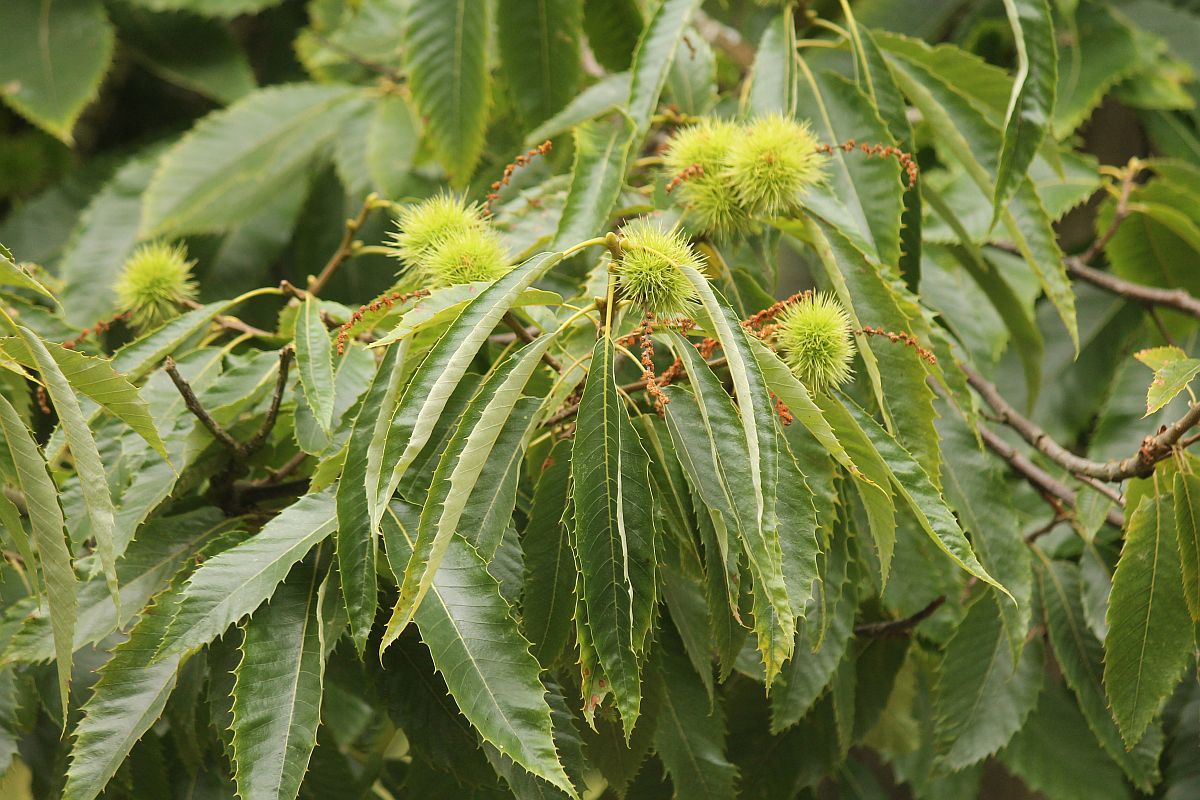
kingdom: Plantae
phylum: Tracheophyta
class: Magnoliopsida
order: Fagales
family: Fagaceae
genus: Castanea
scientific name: Castanea sativa
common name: Sweet chestnut
